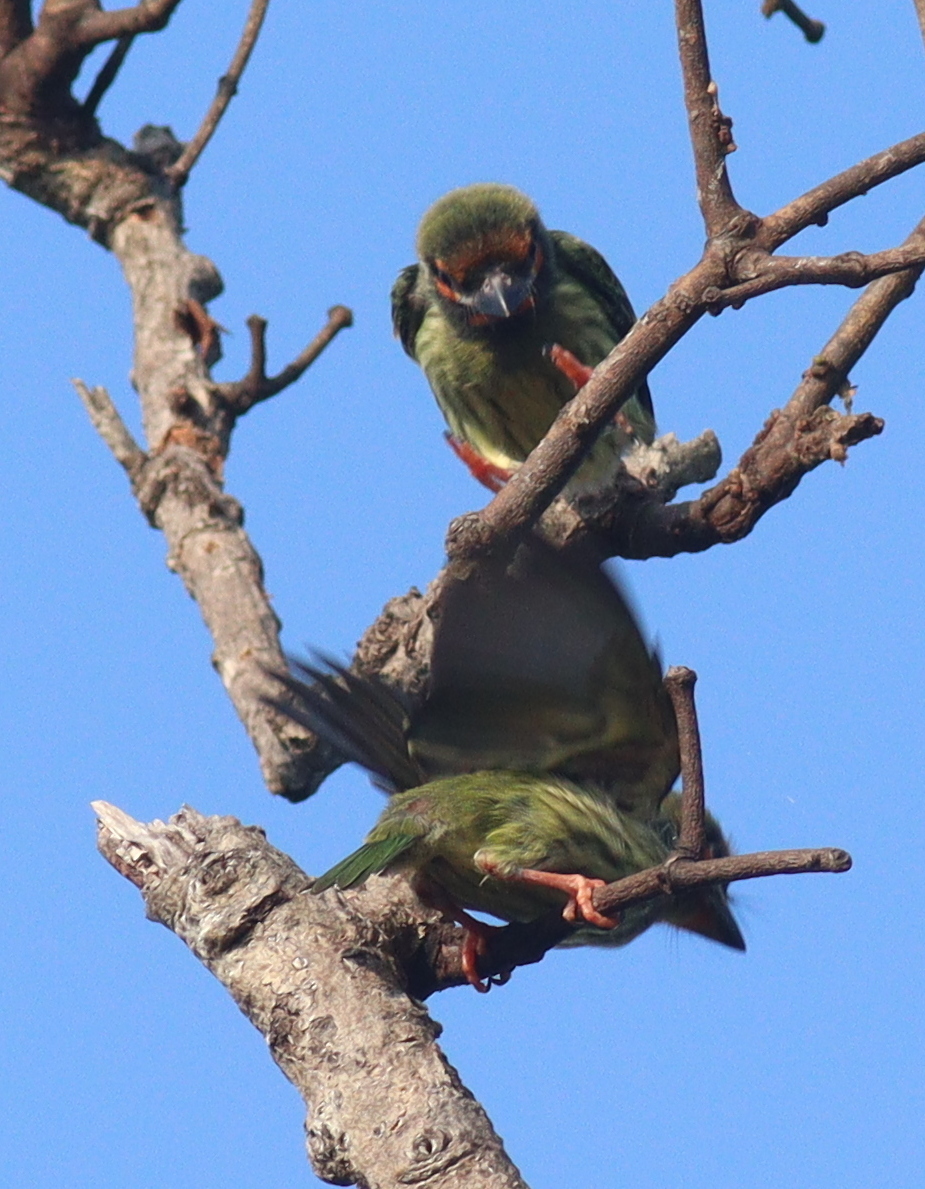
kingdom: Animalia
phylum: Chordata
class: Aves
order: Piciformes
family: Megalaimidae
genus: Psilopogon
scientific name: Psilopogon haemacephalus
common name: Coppersmith barbet
